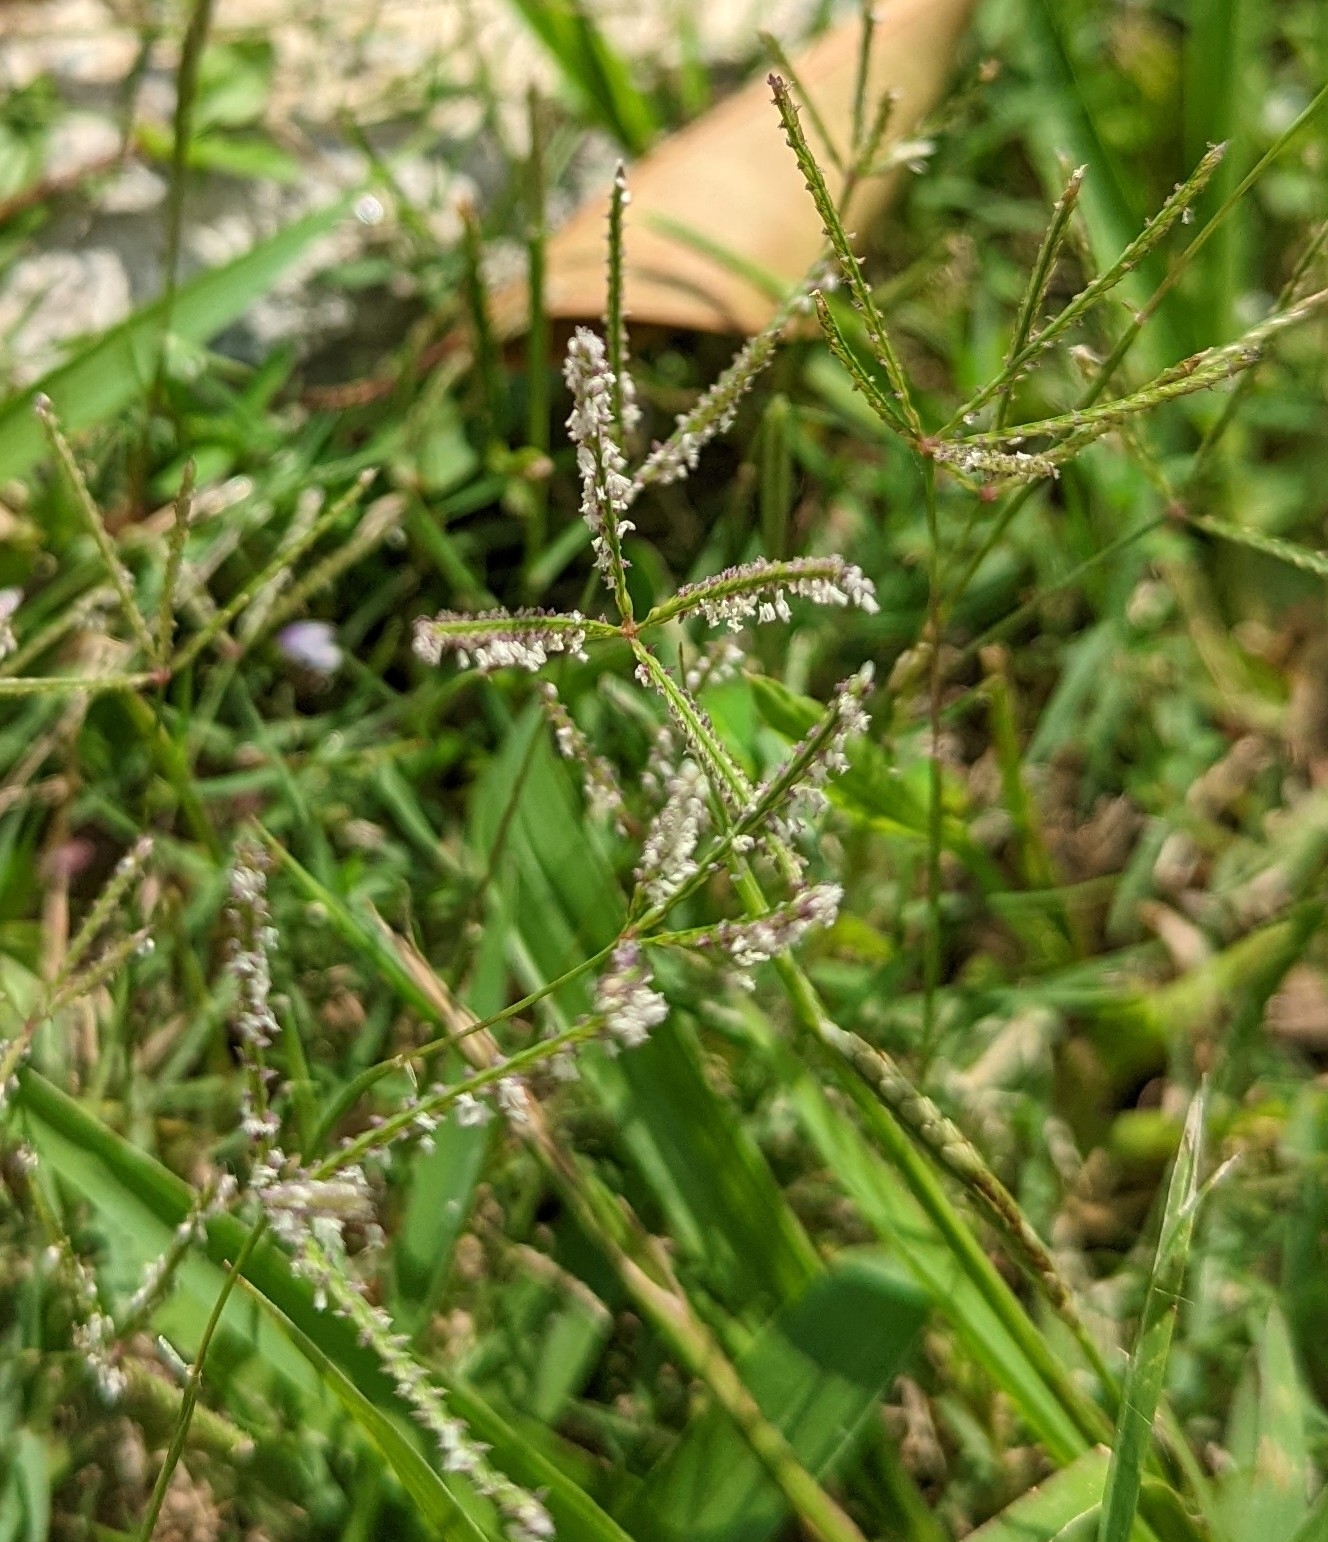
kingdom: Plantae
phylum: Tracheophyta
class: Liliopsida
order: Poales
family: Poaceae
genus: Eleusine
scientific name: Eleusine indica
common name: Yard-grass
